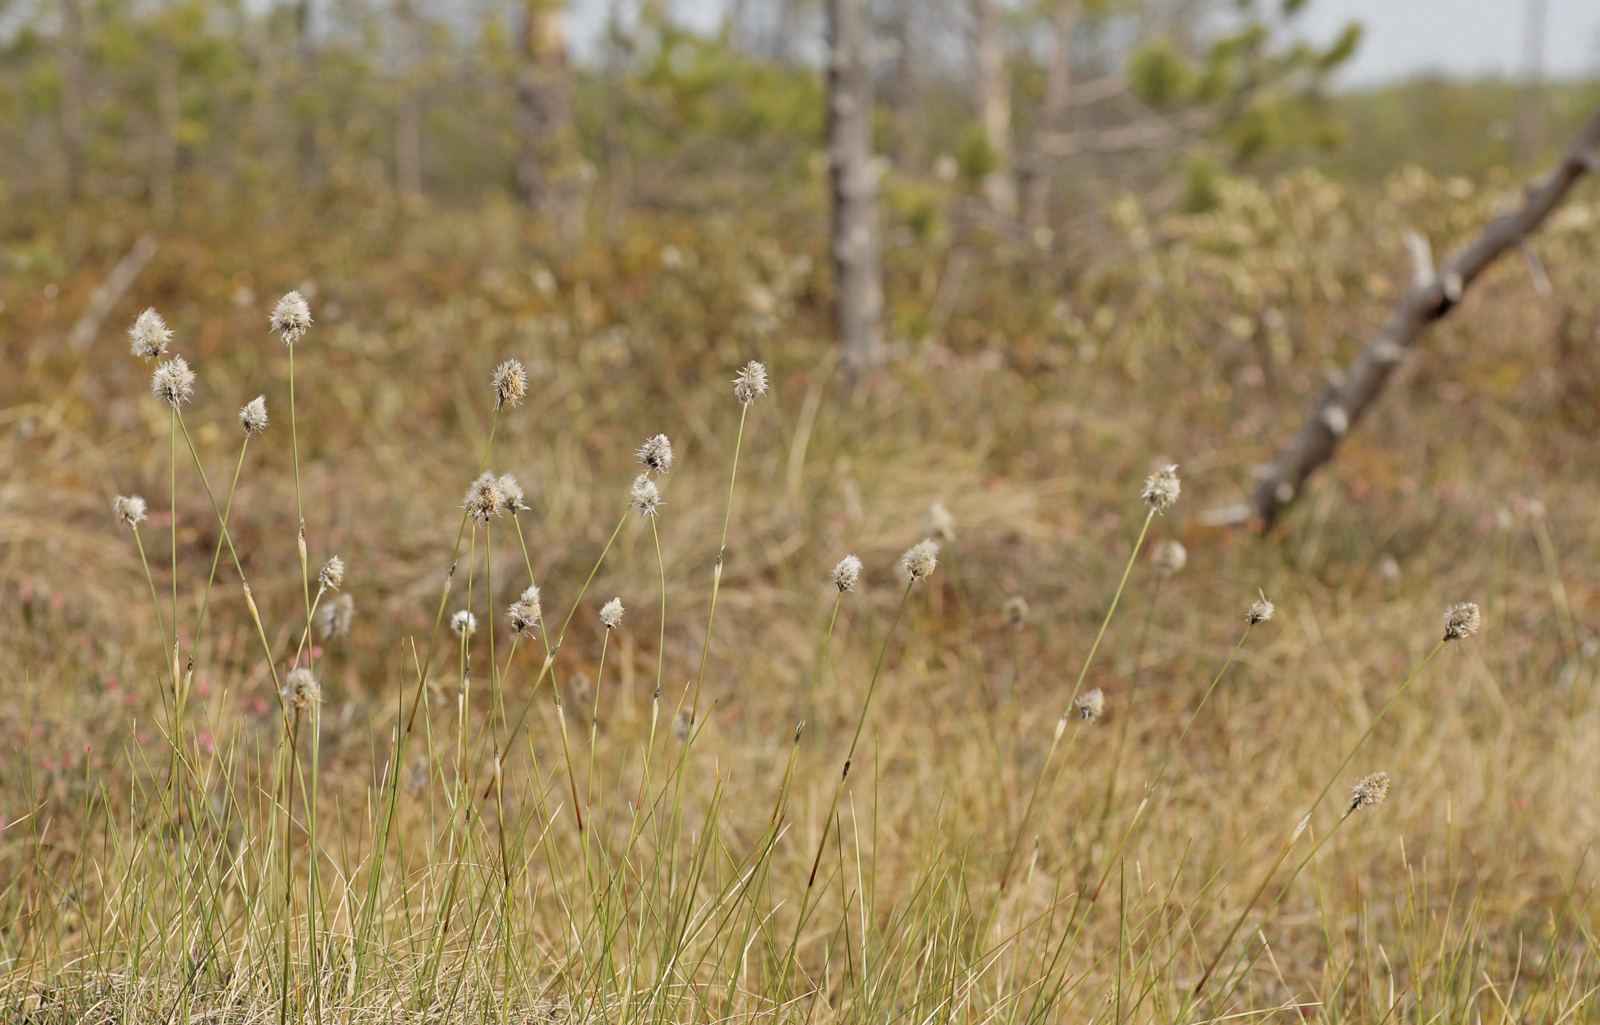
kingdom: Plantae
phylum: Tracheophyta
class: Liliopsida
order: Poales
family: Cyperaceae
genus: Eriophorum
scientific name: Eriophorum vaginatum
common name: Hare's-tail cottongrass
